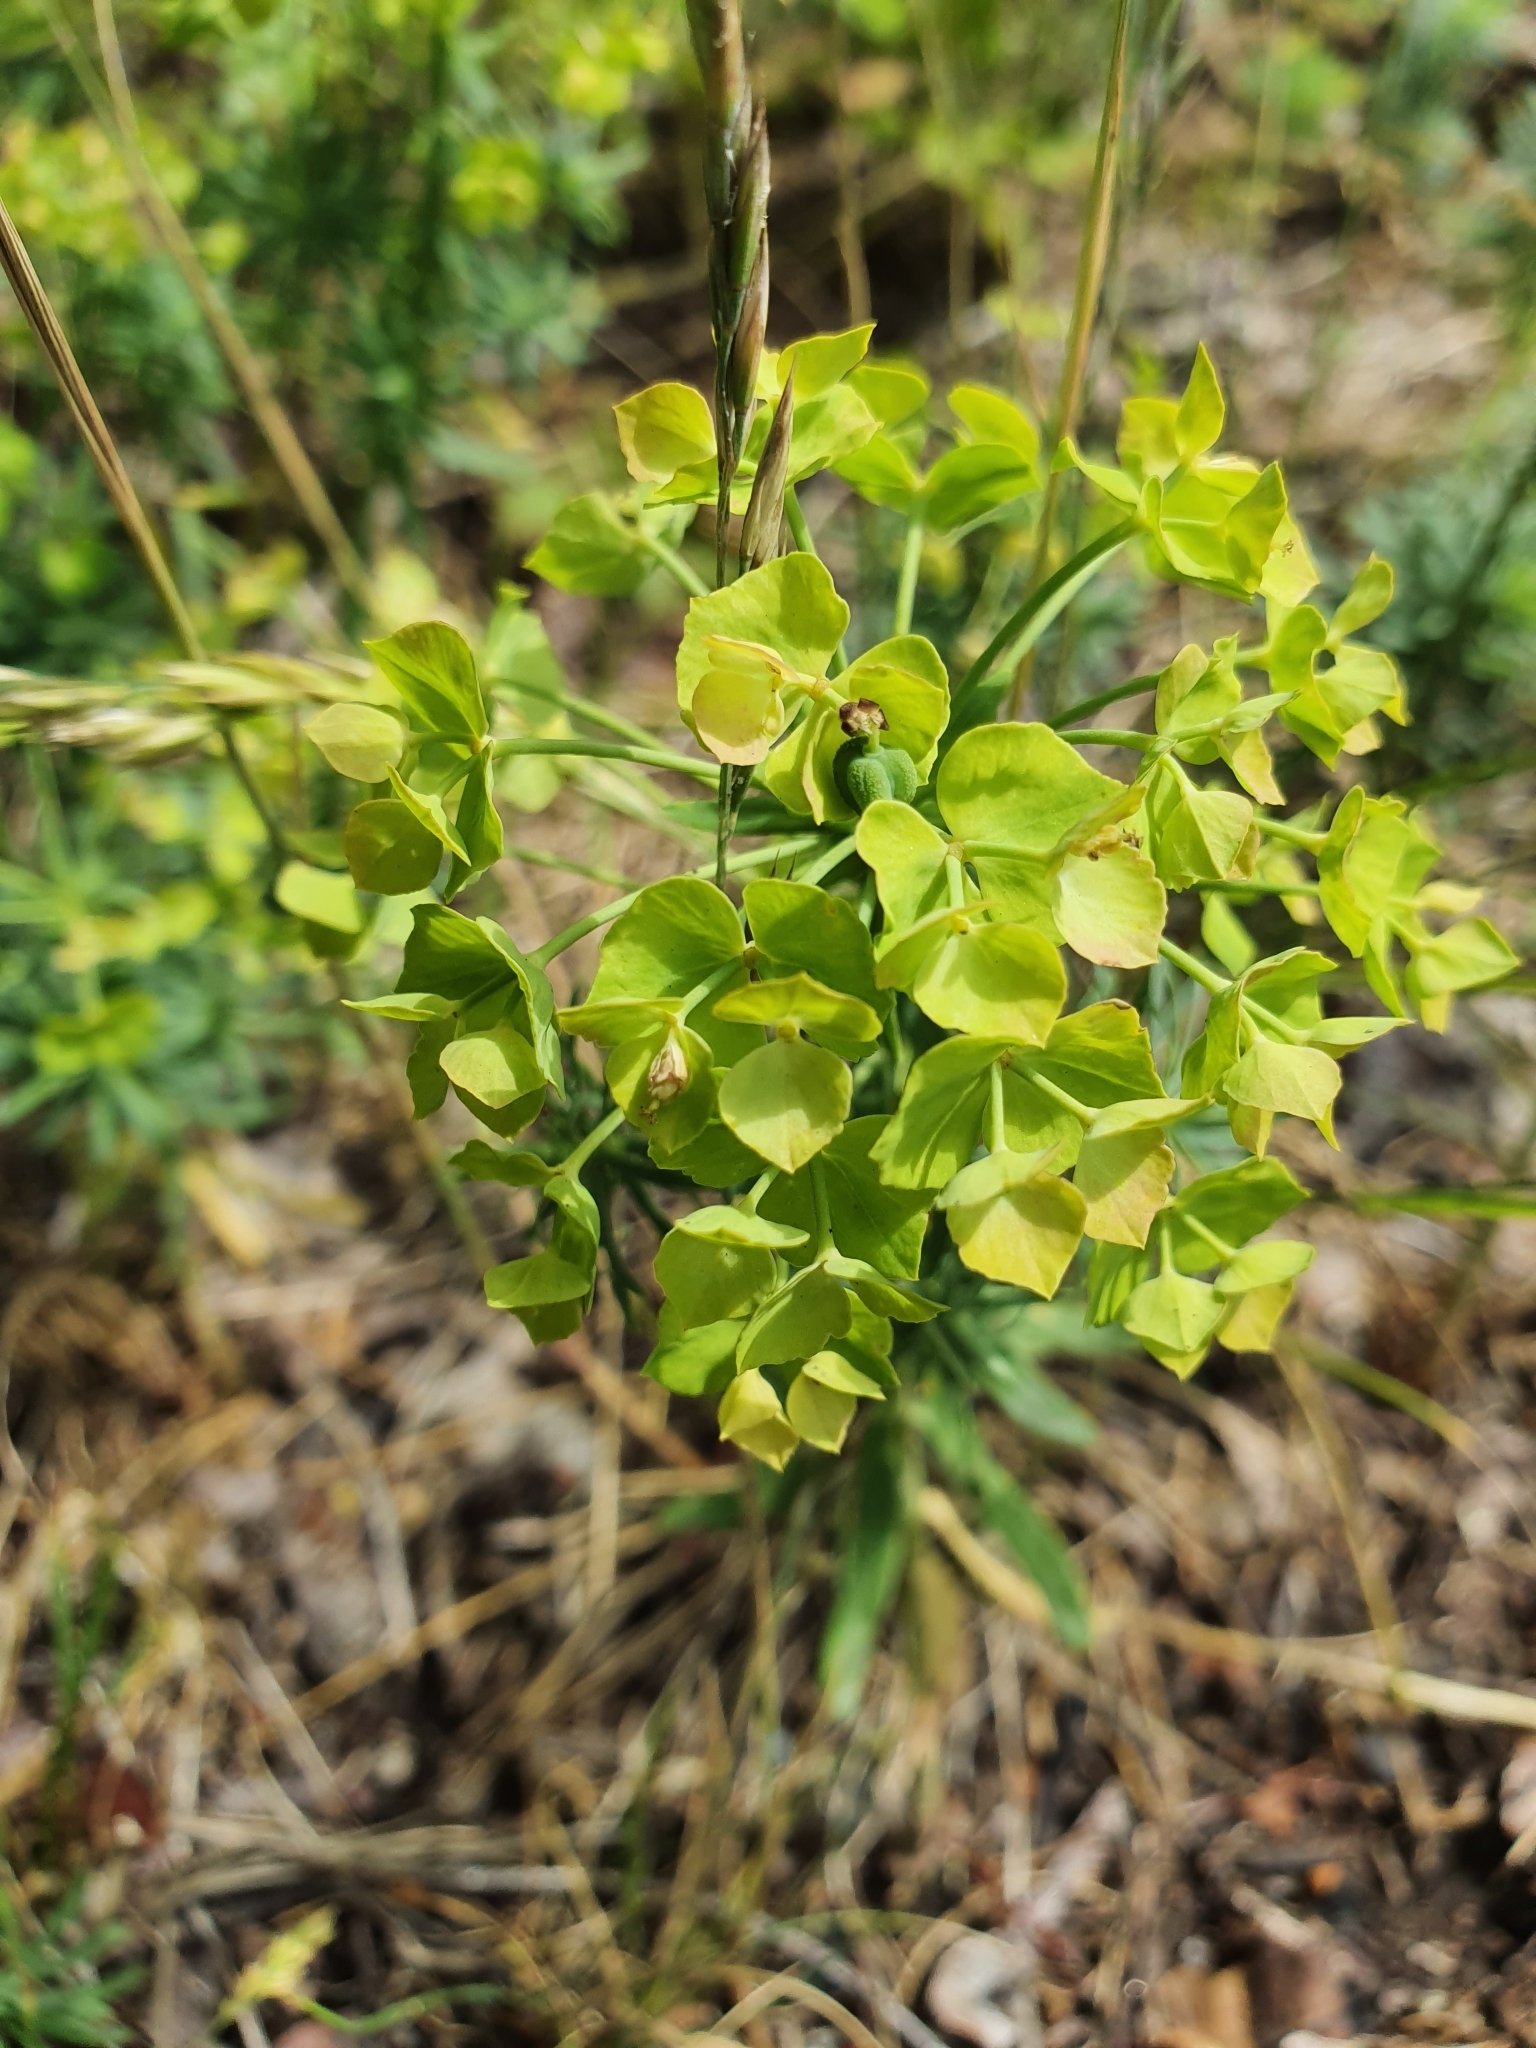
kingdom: Plantae
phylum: Tracheophyta
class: Magnoliopsida
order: Malpighiales
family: Euphorbiaceae
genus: Euphorbia
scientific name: Euphorbia cyparissias
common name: Cypress spurge
